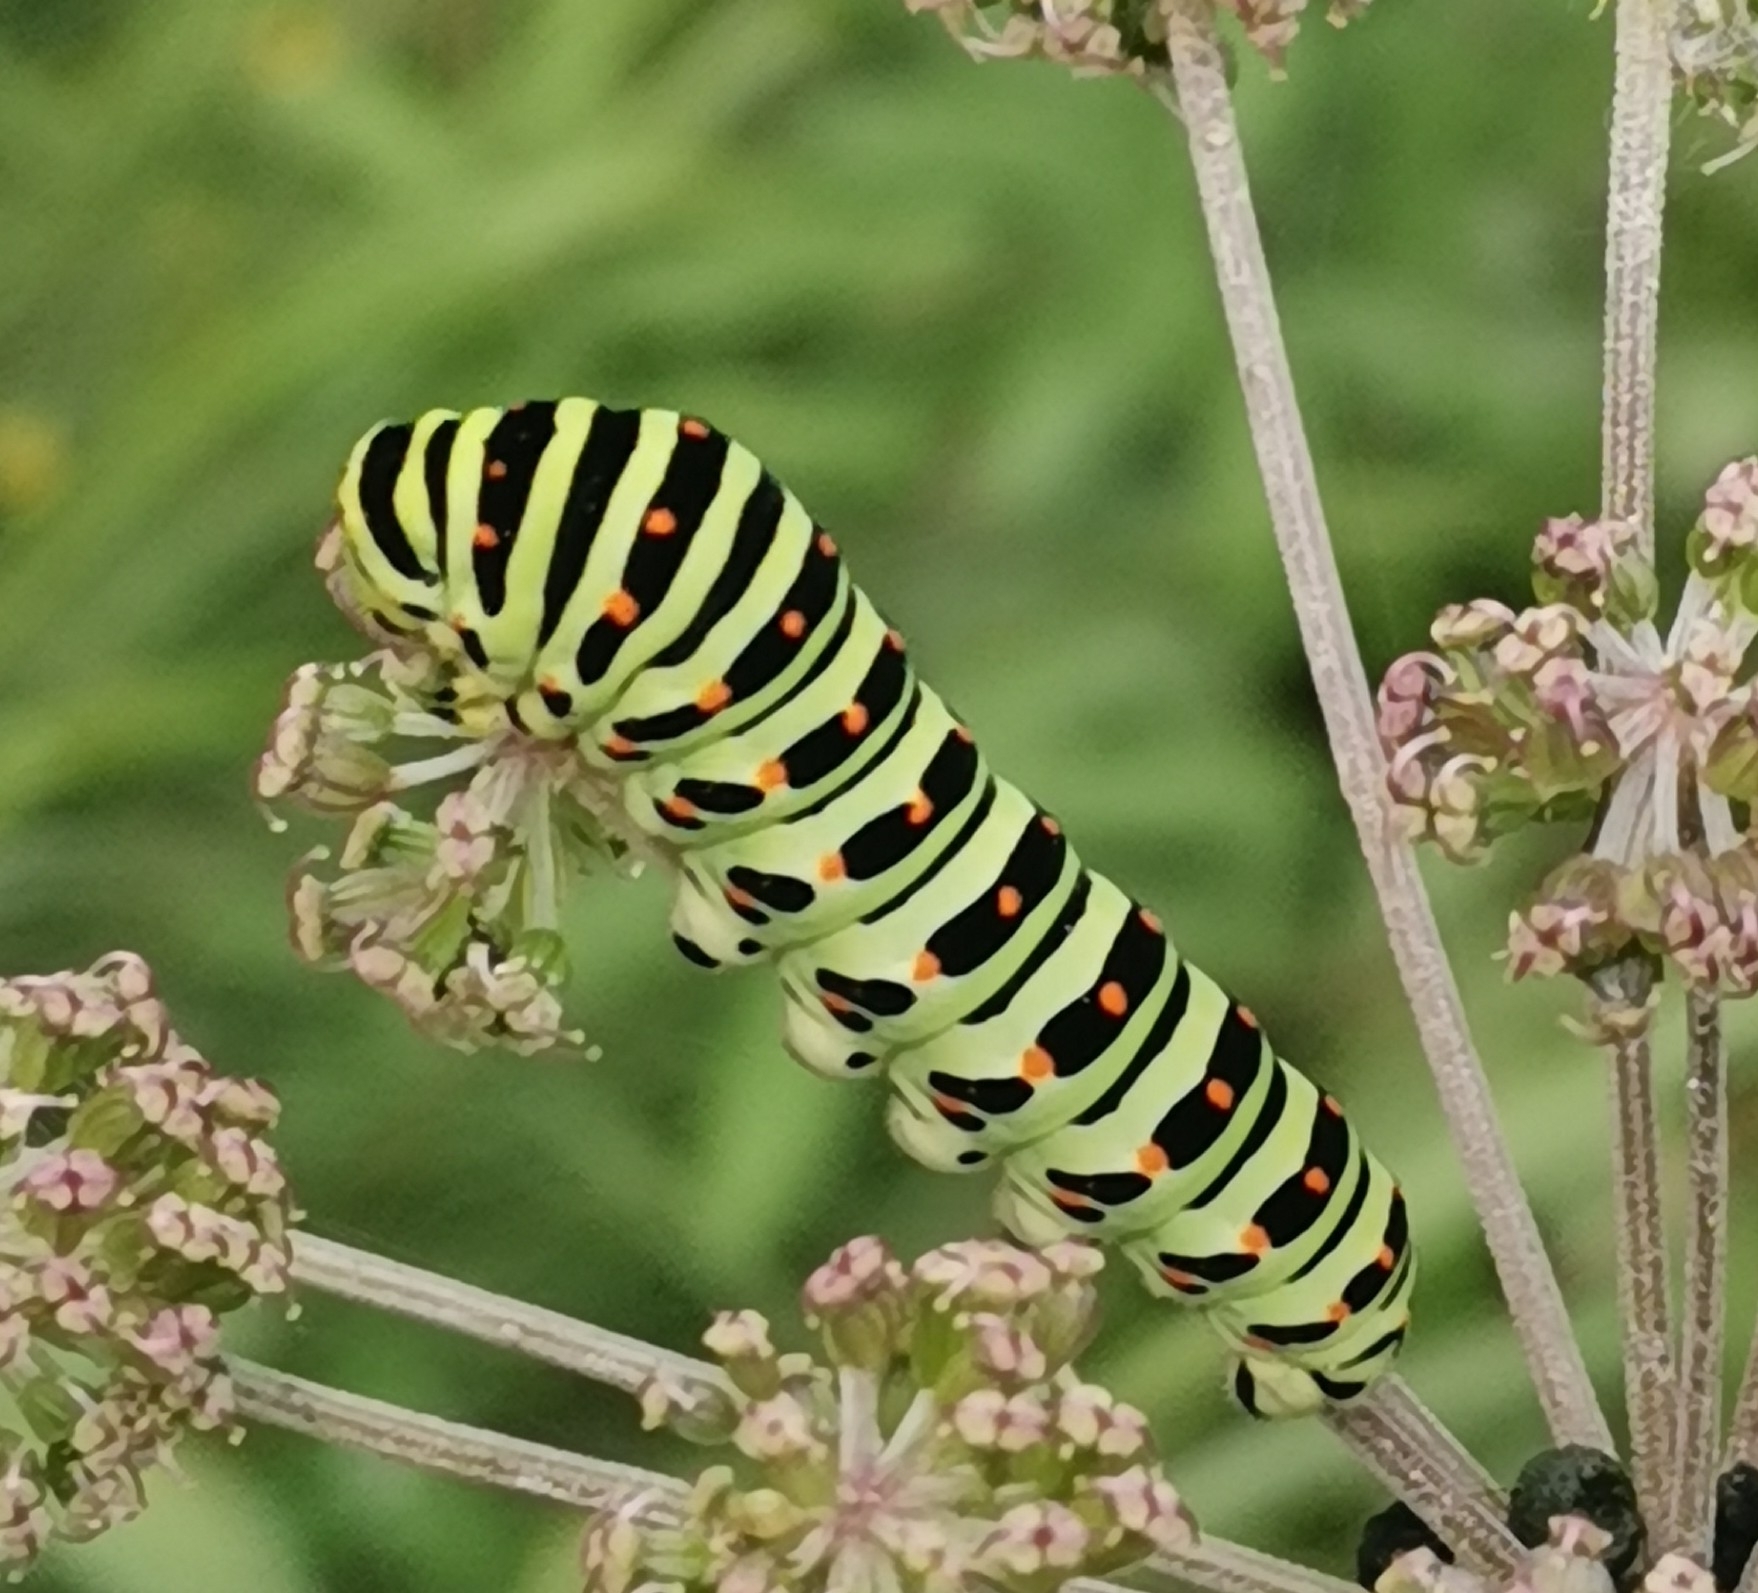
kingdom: Animalia
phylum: Arthropoda
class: Insecta
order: Lepidoptera
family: Papilionidae
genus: Papilio
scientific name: Papilio machaon
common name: Swallowtail
